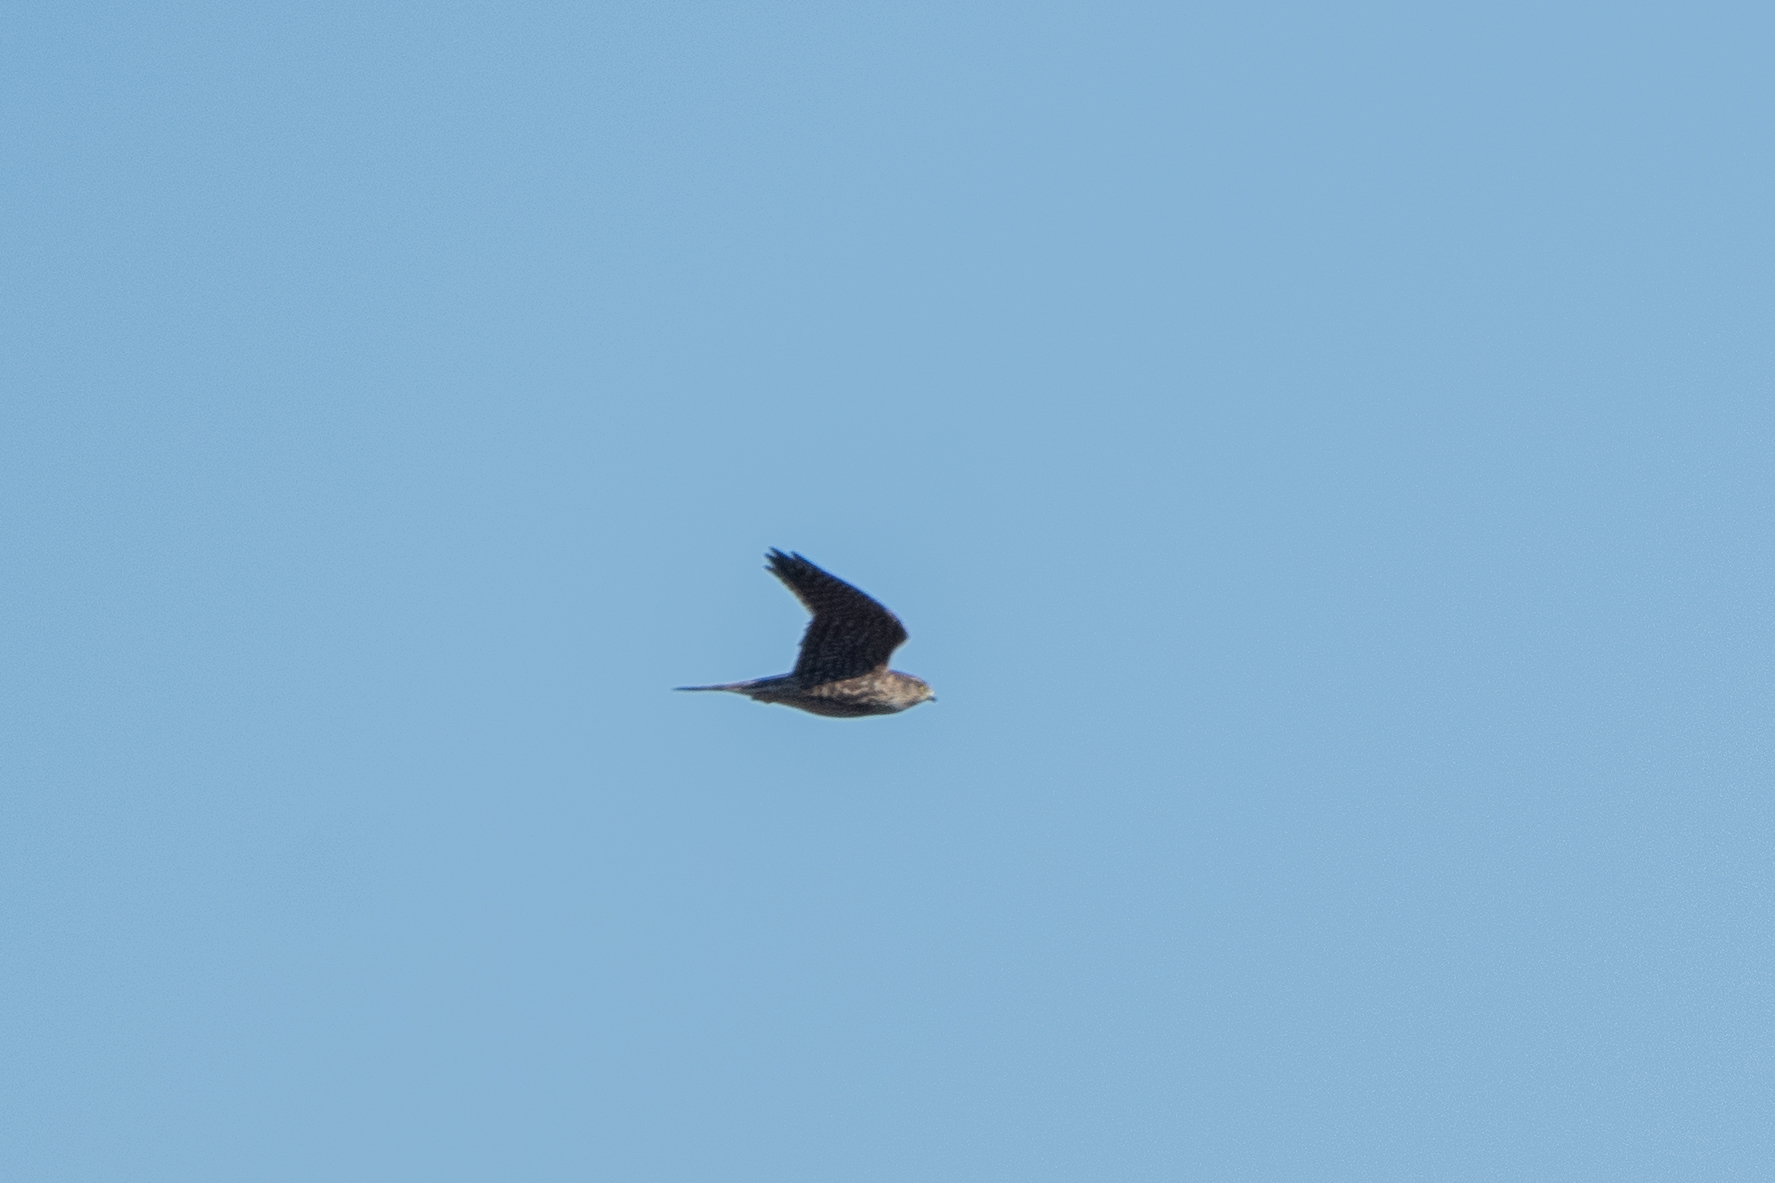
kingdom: Animalia
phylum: Chordata
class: Aves
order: Falconiformes
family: Falconidae
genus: Falco
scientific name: Falco columbarius
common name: Merlin
